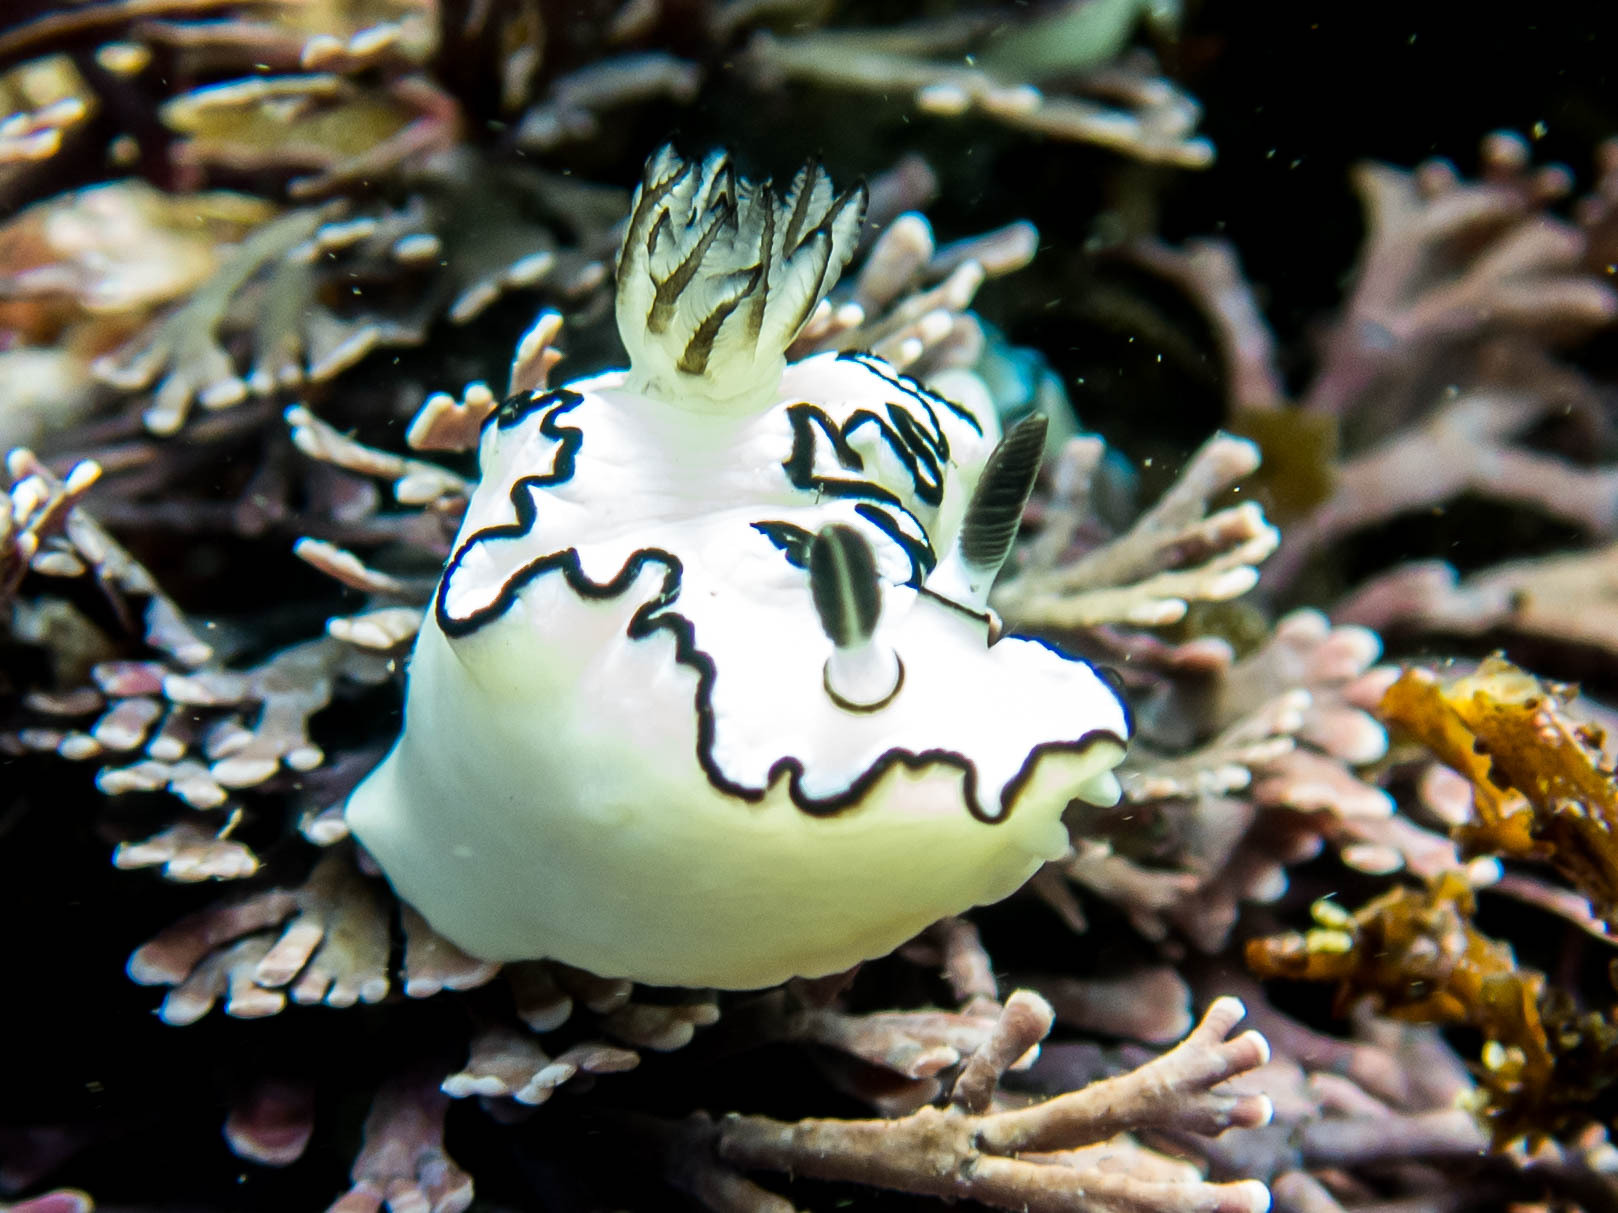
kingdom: Animalia
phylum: Mollusca
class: Gastropoda
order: Nudibranchia
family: Chromodorididae
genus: Doriprismatica
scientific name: Doriprismatica atromarginata
